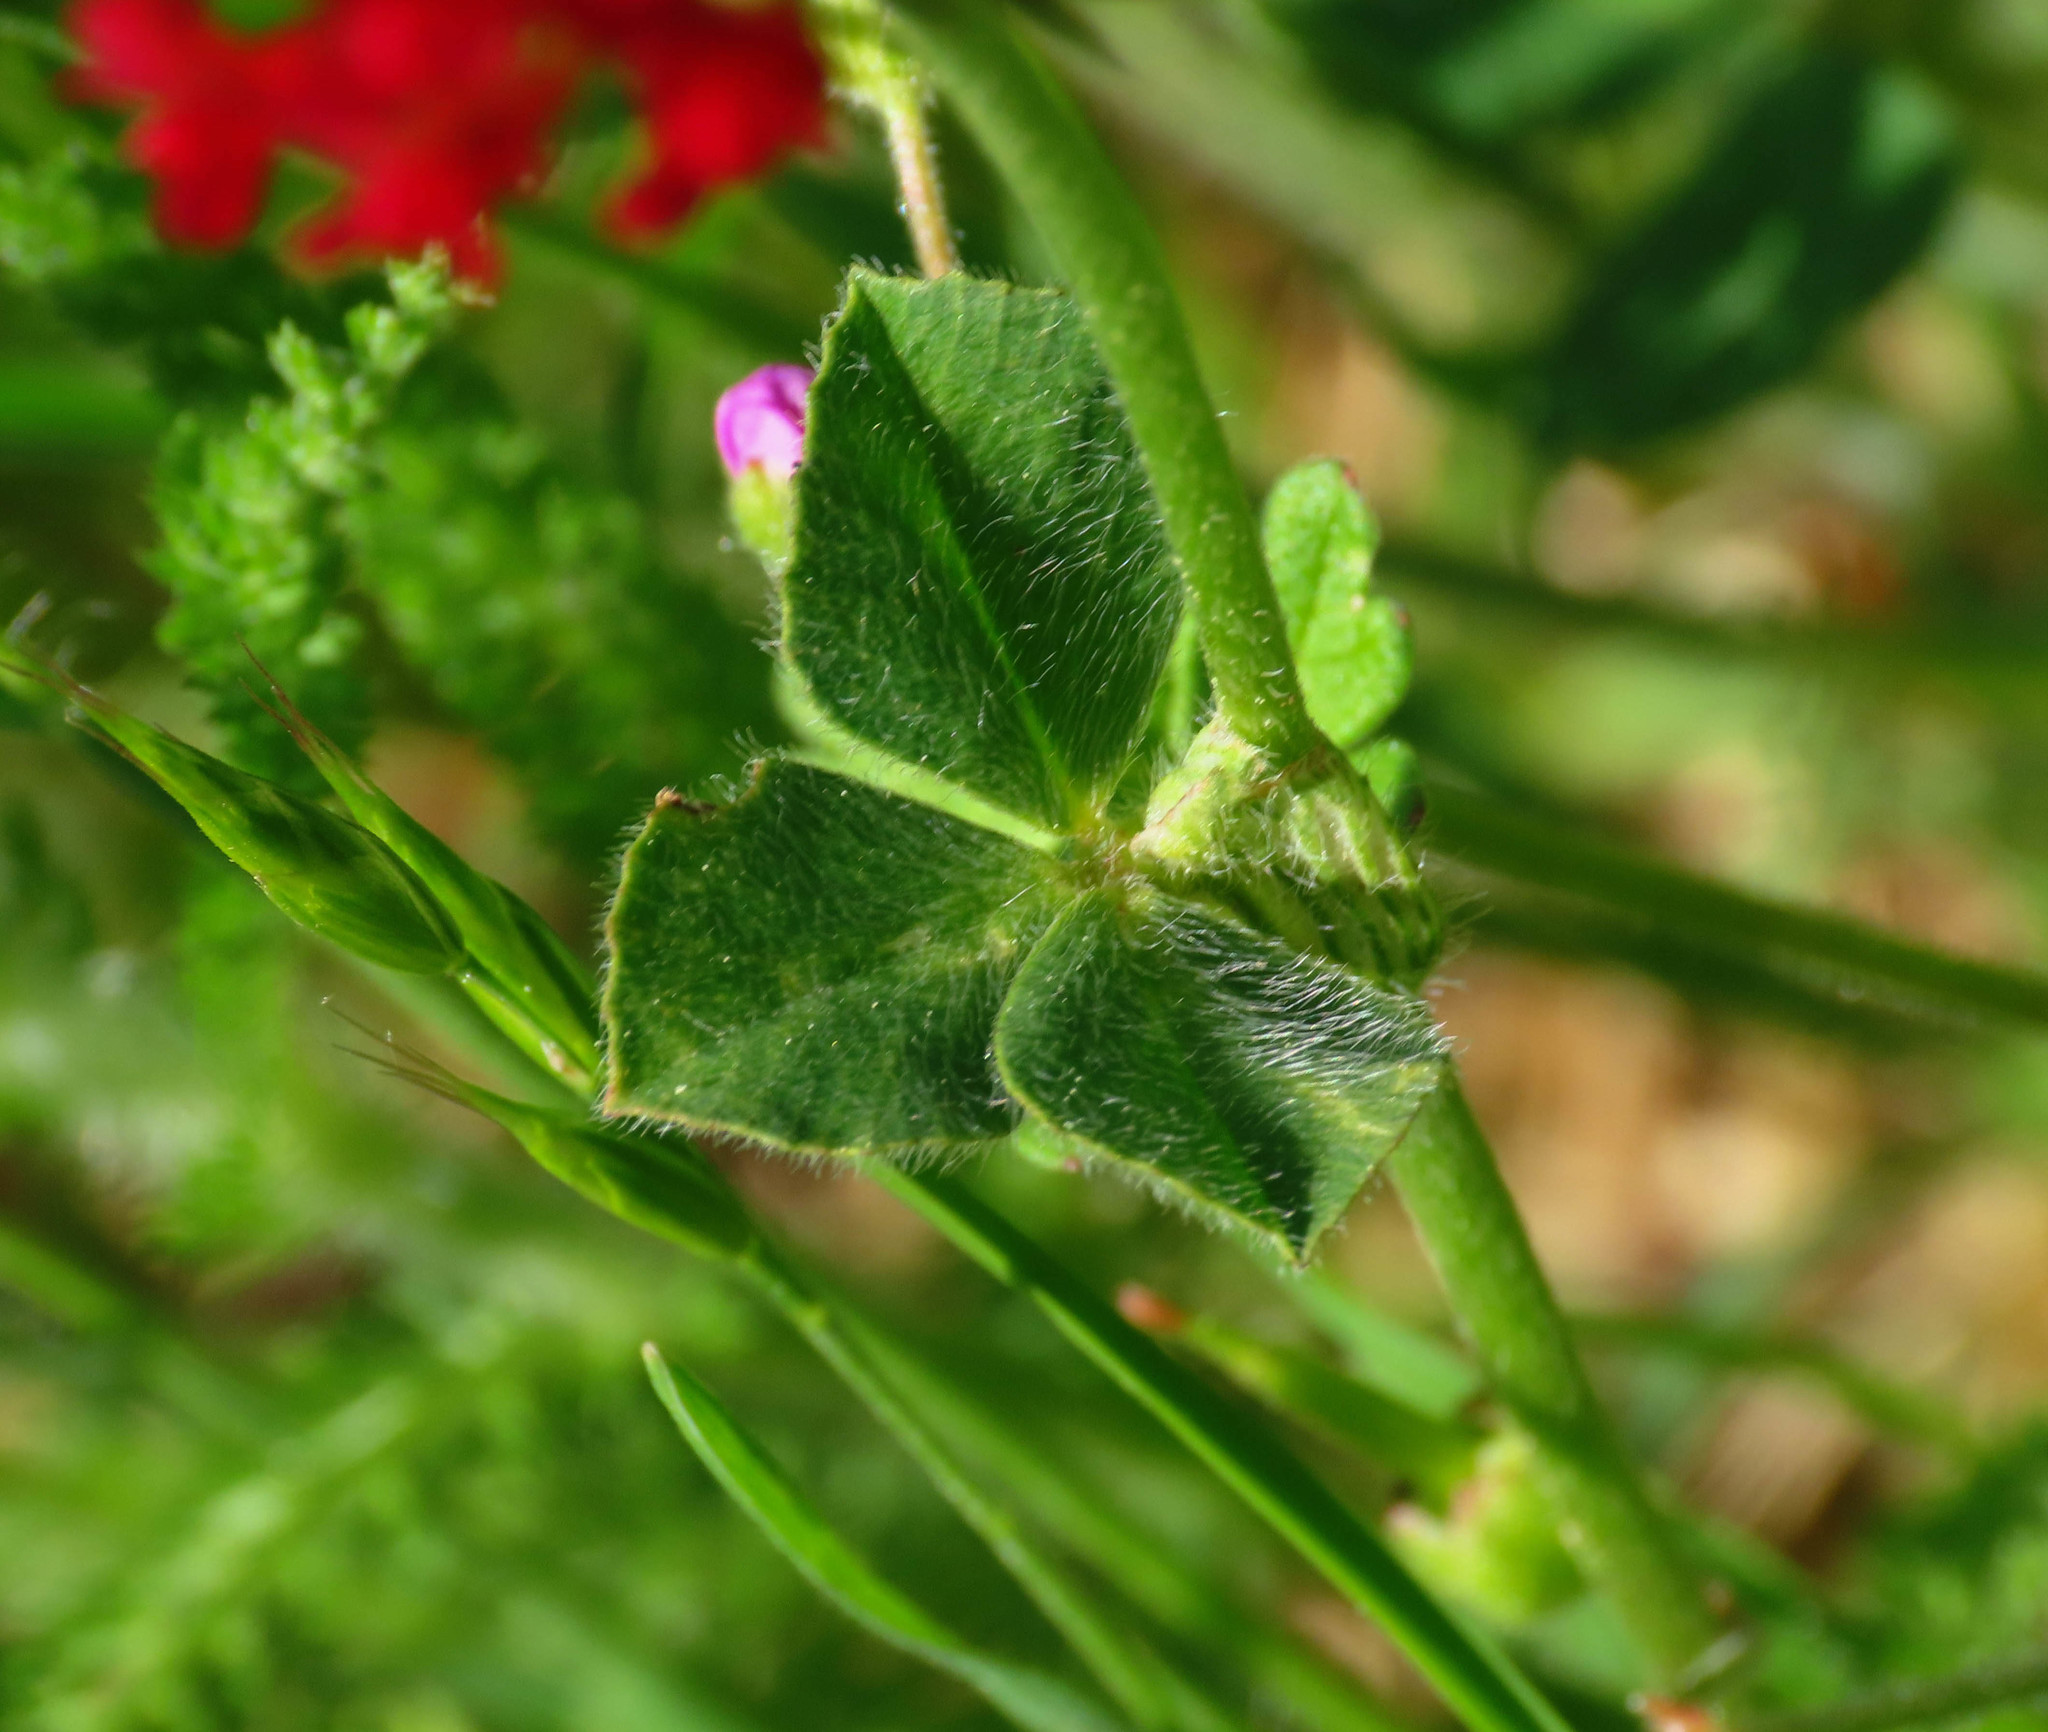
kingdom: Plantae
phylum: Tracheophyta
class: Magnoliopsida
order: Fabales
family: Fabaceae
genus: Trifolium
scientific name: Trifolium incarnatum
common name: Crimson clover
